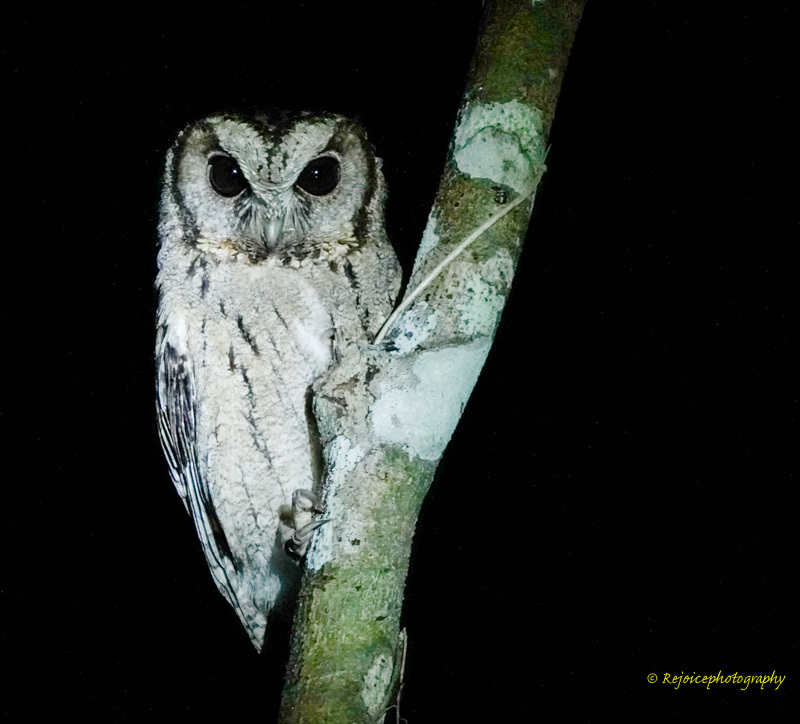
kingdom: Animalia
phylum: Chordata
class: Aves
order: Strigiformes
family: Strigidae
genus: Otus
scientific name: Otus lettia
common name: Collared scops owl
